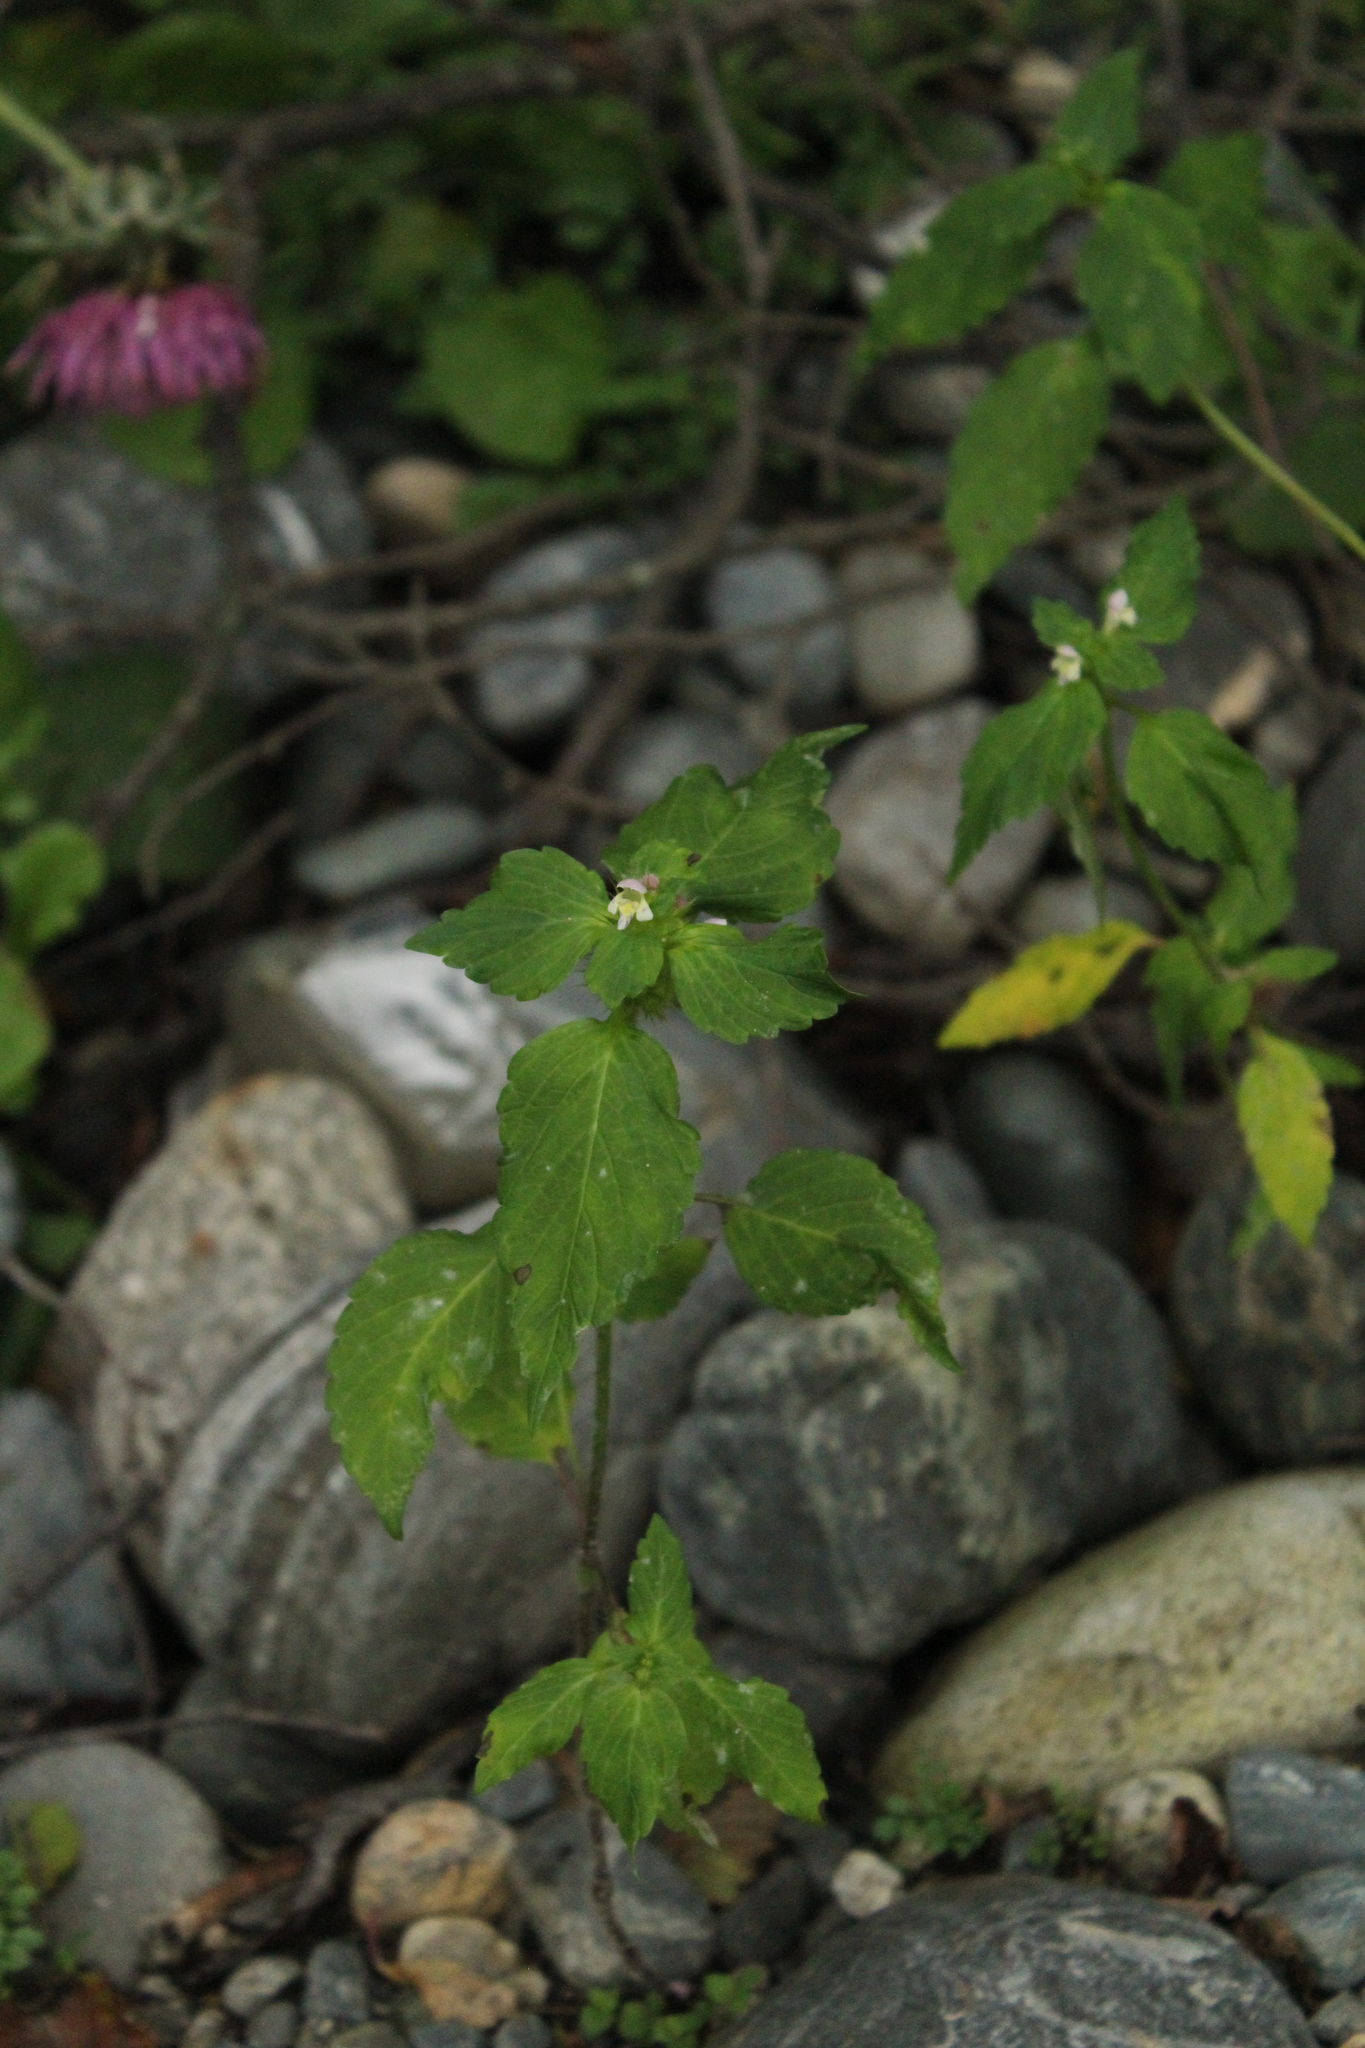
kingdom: Plantae
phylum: Tracheophyta
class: Magnoliopsida
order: Lamiales
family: Lamiaceae
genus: Galeopsis
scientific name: Galeopsis bifida
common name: Bifid hemp-nettle
